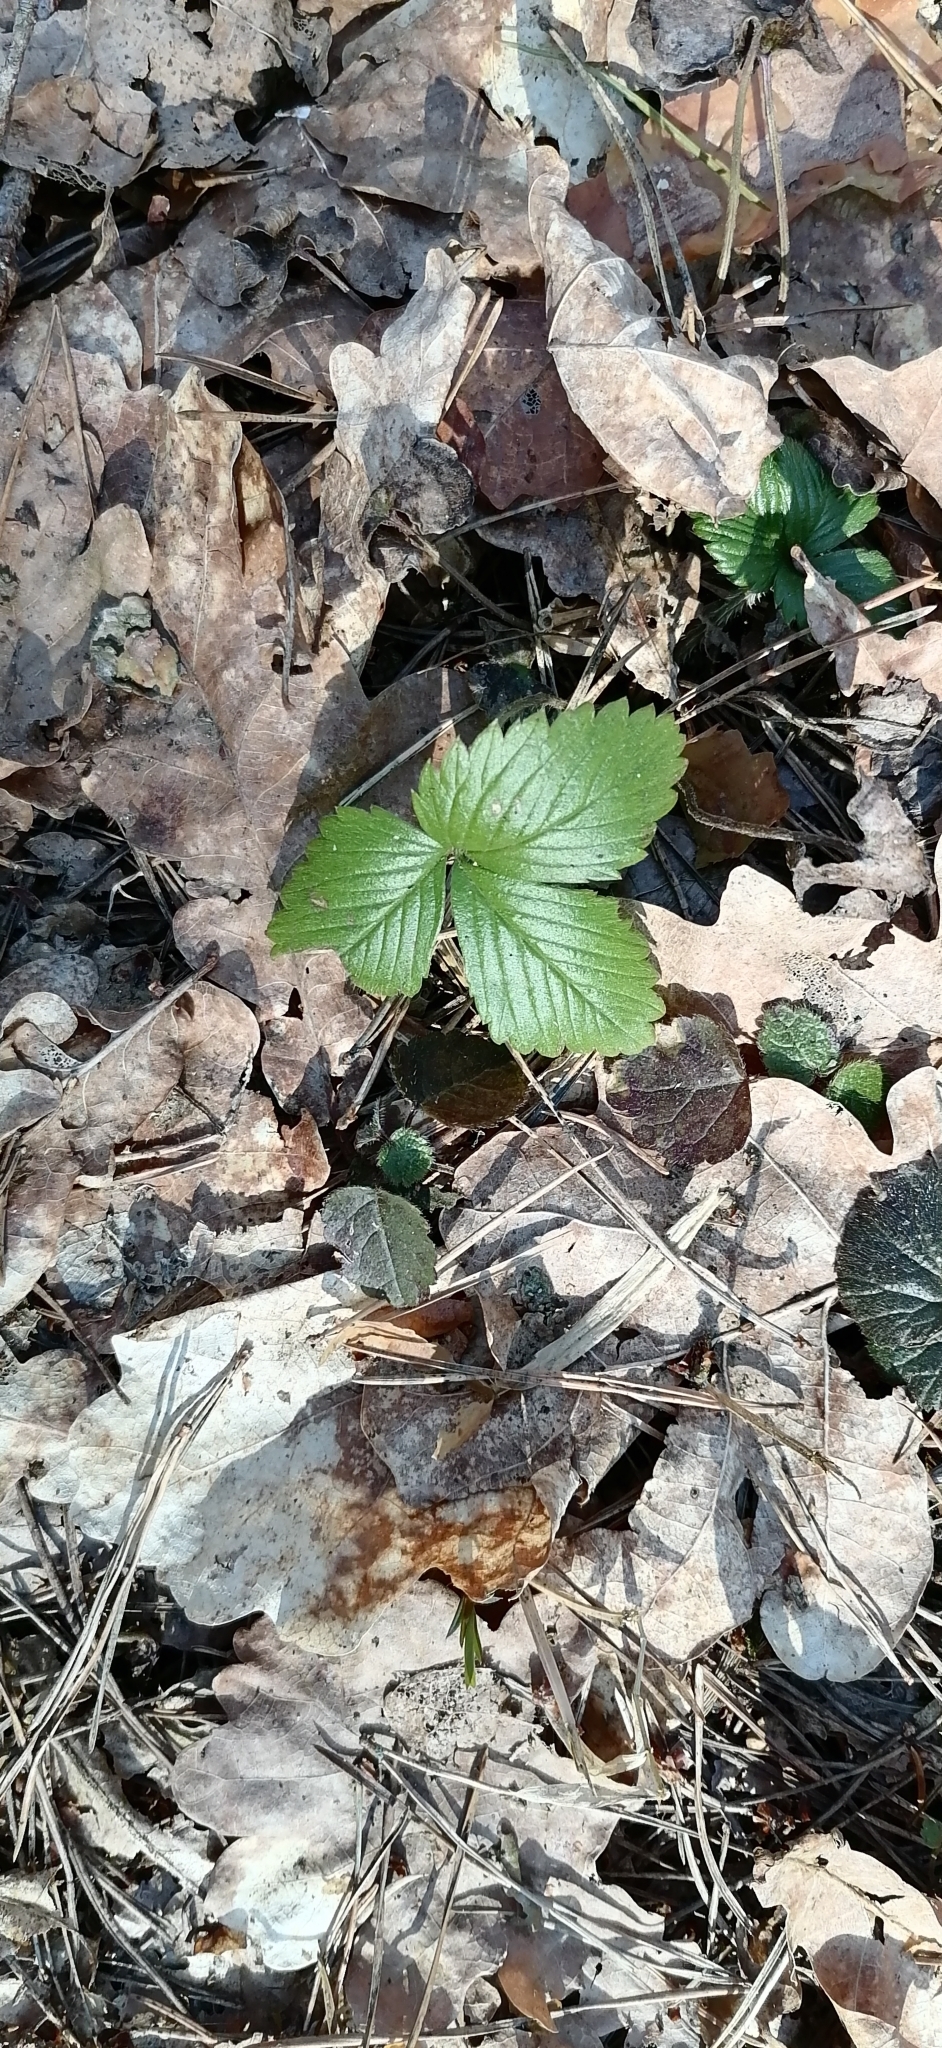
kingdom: Plantae
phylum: Tracheophyta
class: Magnoliopsida
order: Rosales
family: Rosaceae
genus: Fragaria
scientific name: Fragaria vesca
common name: Wild strawberry
